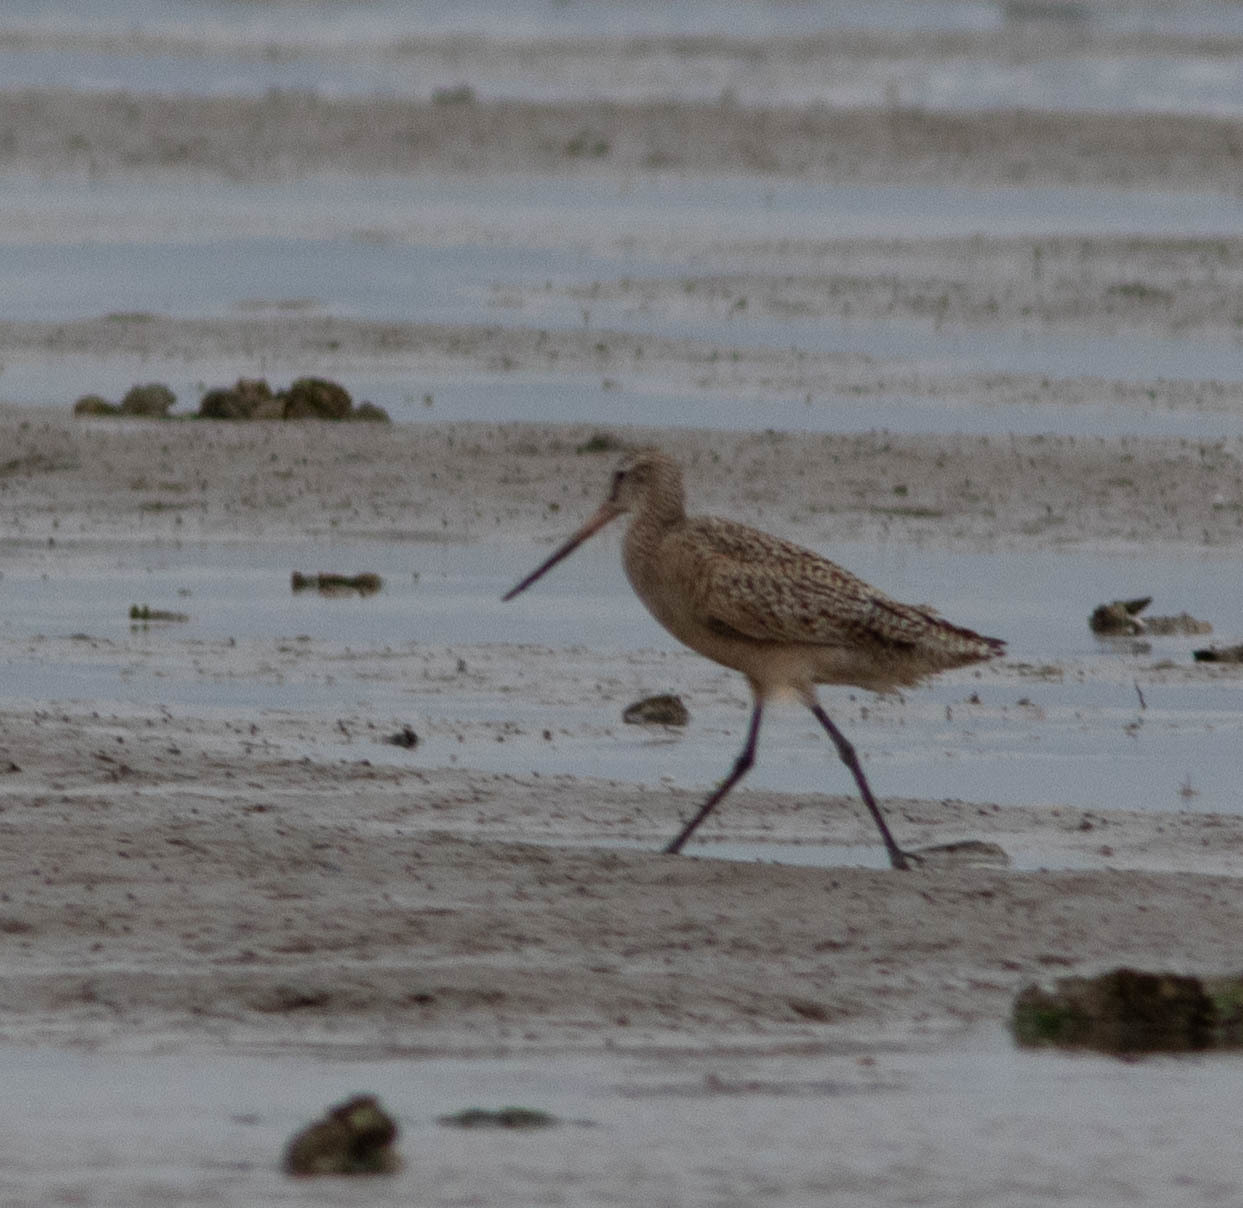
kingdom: Animalia
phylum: Chordata
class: Aves
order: Charadriiformes
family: Scolopacidae
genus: Limosa
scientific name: Limosa fedoa
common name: Marbled godwit
